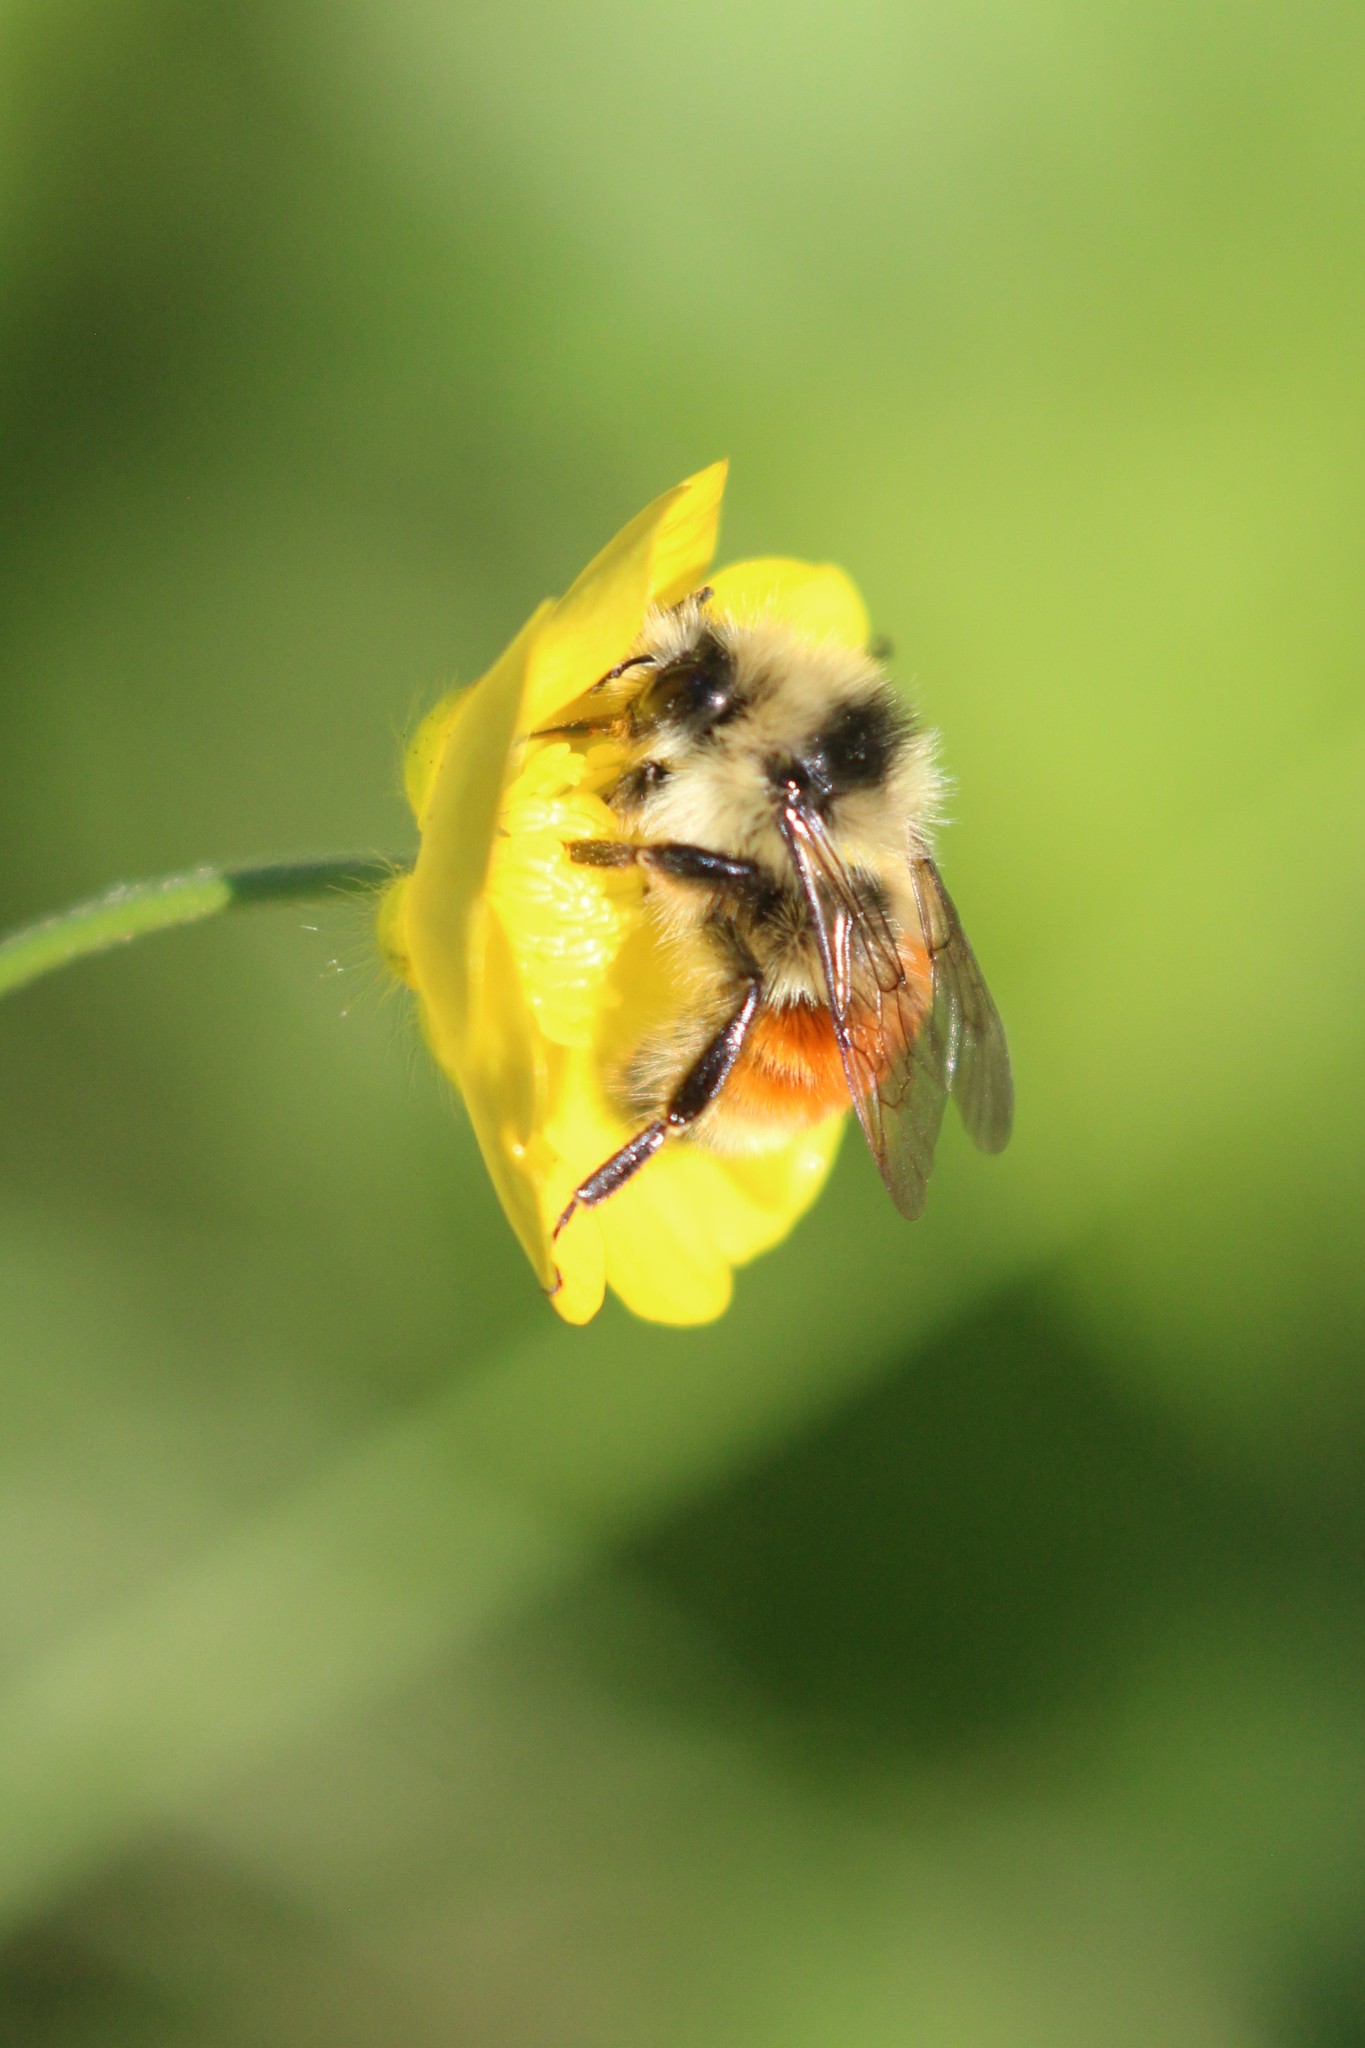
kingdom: Animalia
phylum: Arthropoda
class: Insecta
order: Hymenoptera
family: Apidae
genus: Bombus
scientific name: Bombus ternarius
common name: Tri-colored bumble bee
